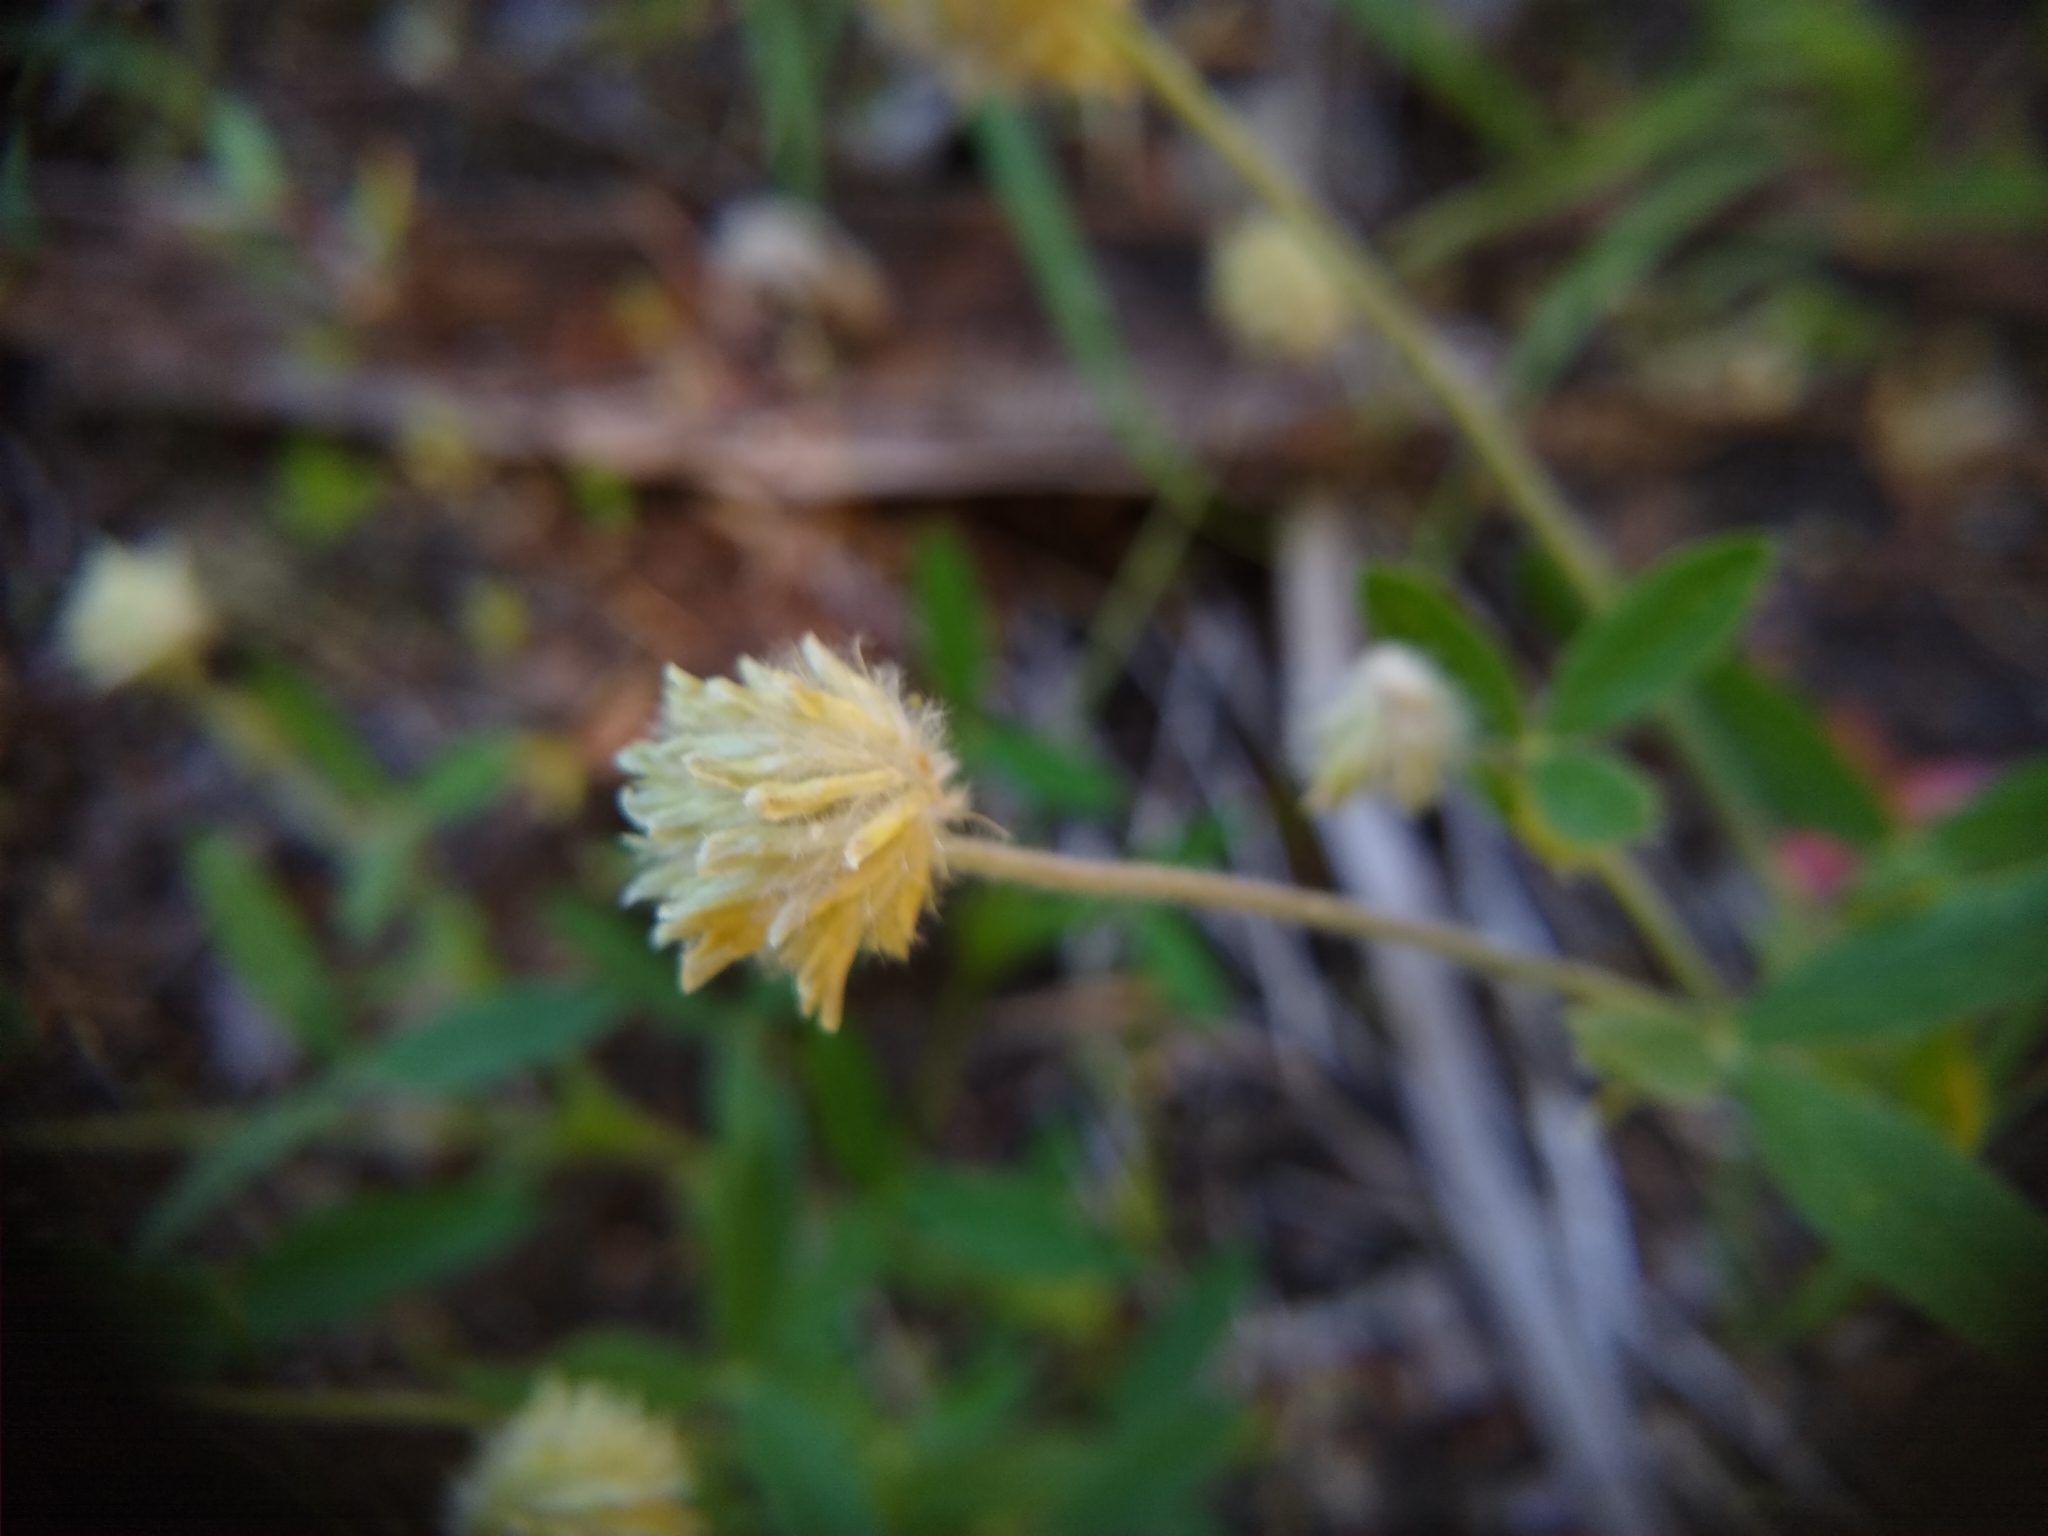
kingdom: Plantae
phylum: Tracheophyta
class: Magnoliopsida
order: Fabales
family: Fabaceae
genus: Trifolium
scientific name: Trifolium eriocephalum
